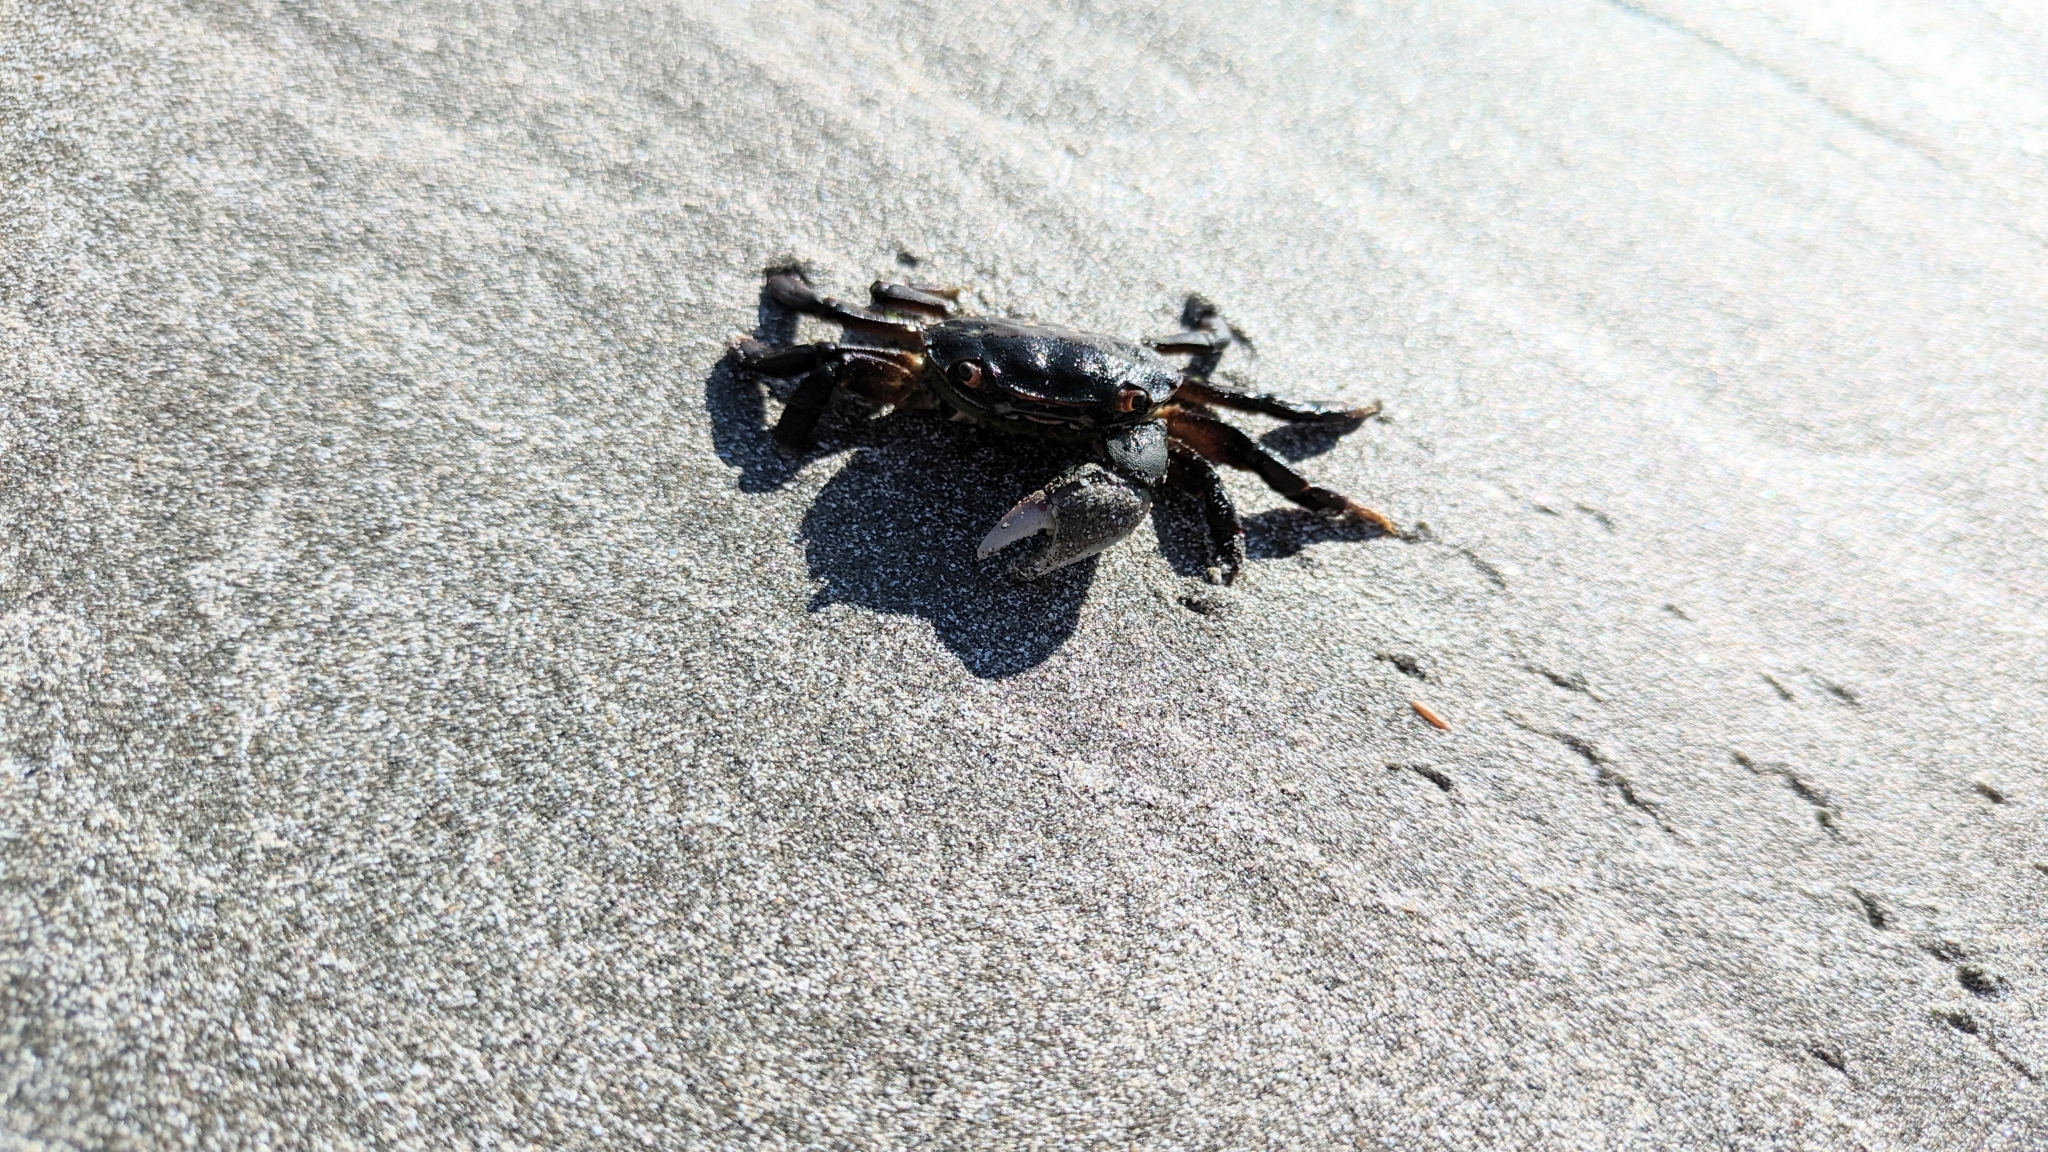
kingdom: Animalia
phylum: Arthropoda
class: Malacostraca
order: Decapoda
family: Varunidae
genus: Hemigrapsus
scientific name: Hemigrapsus nudus
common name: Purple shore crab
